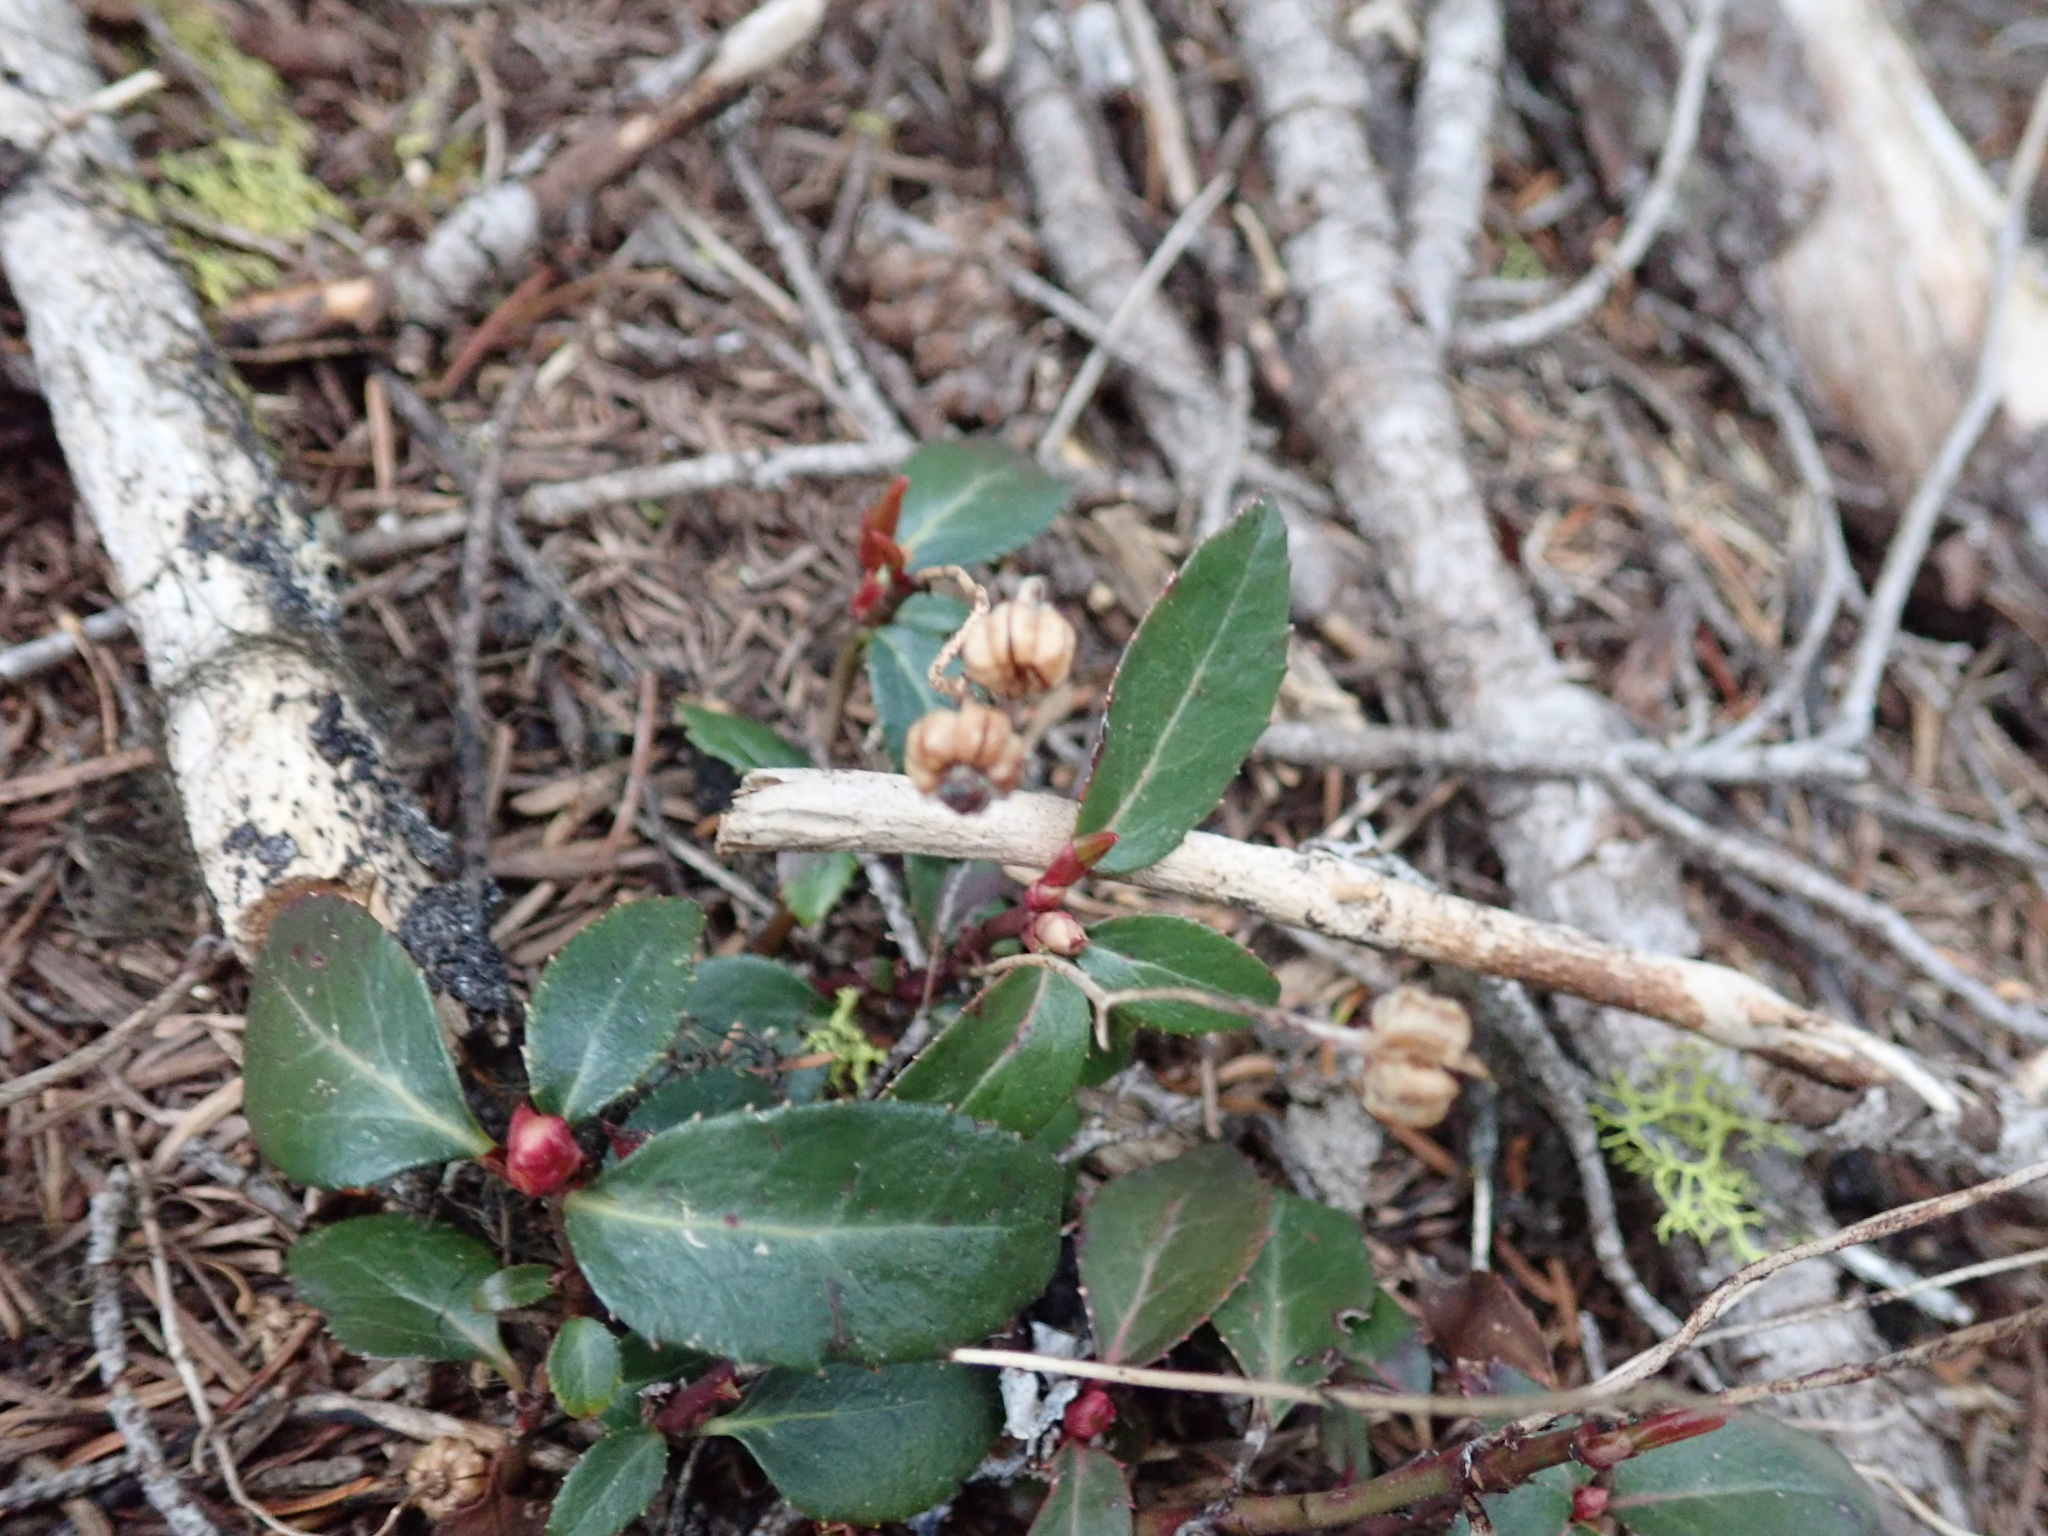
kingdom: Plantae
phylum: Tracheophyta
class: Magnoliopsida
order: Ericales
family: Ericaceae
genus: Chimaphila
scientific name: Chimaphila menziesii
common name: Menzies' pipsissewa
